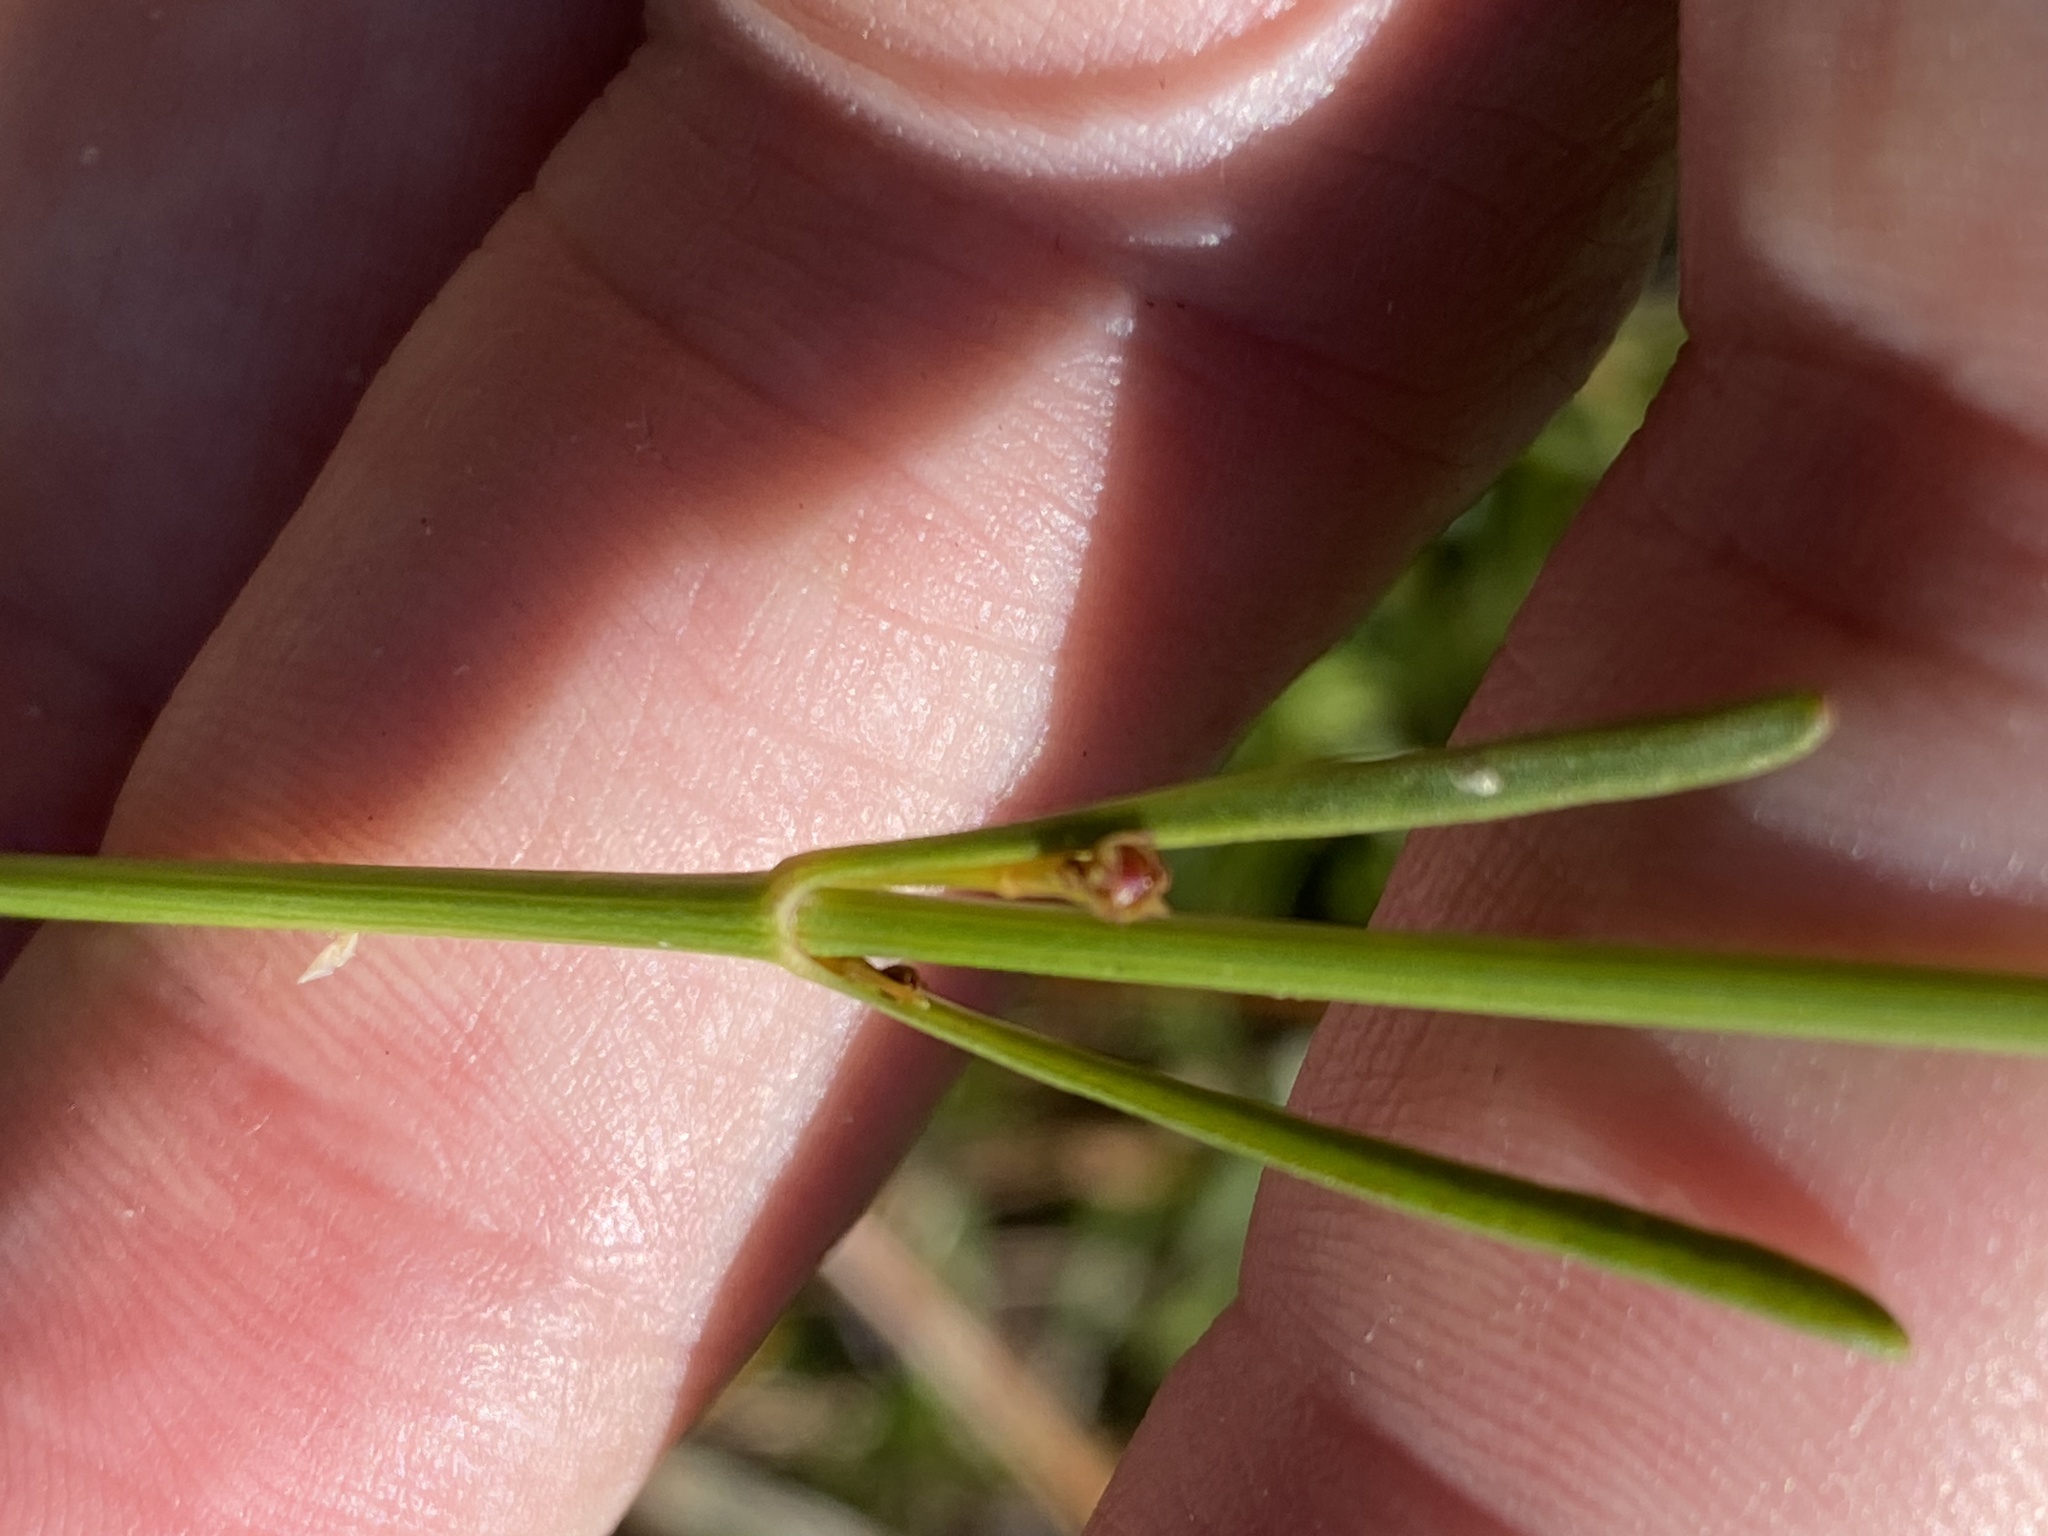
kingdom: Plantae
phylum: Tracheophyta
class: Magnoliopsida
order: Asterales
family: Asteraceae
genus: Coreopsis
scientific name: Coreopsis gladiata
